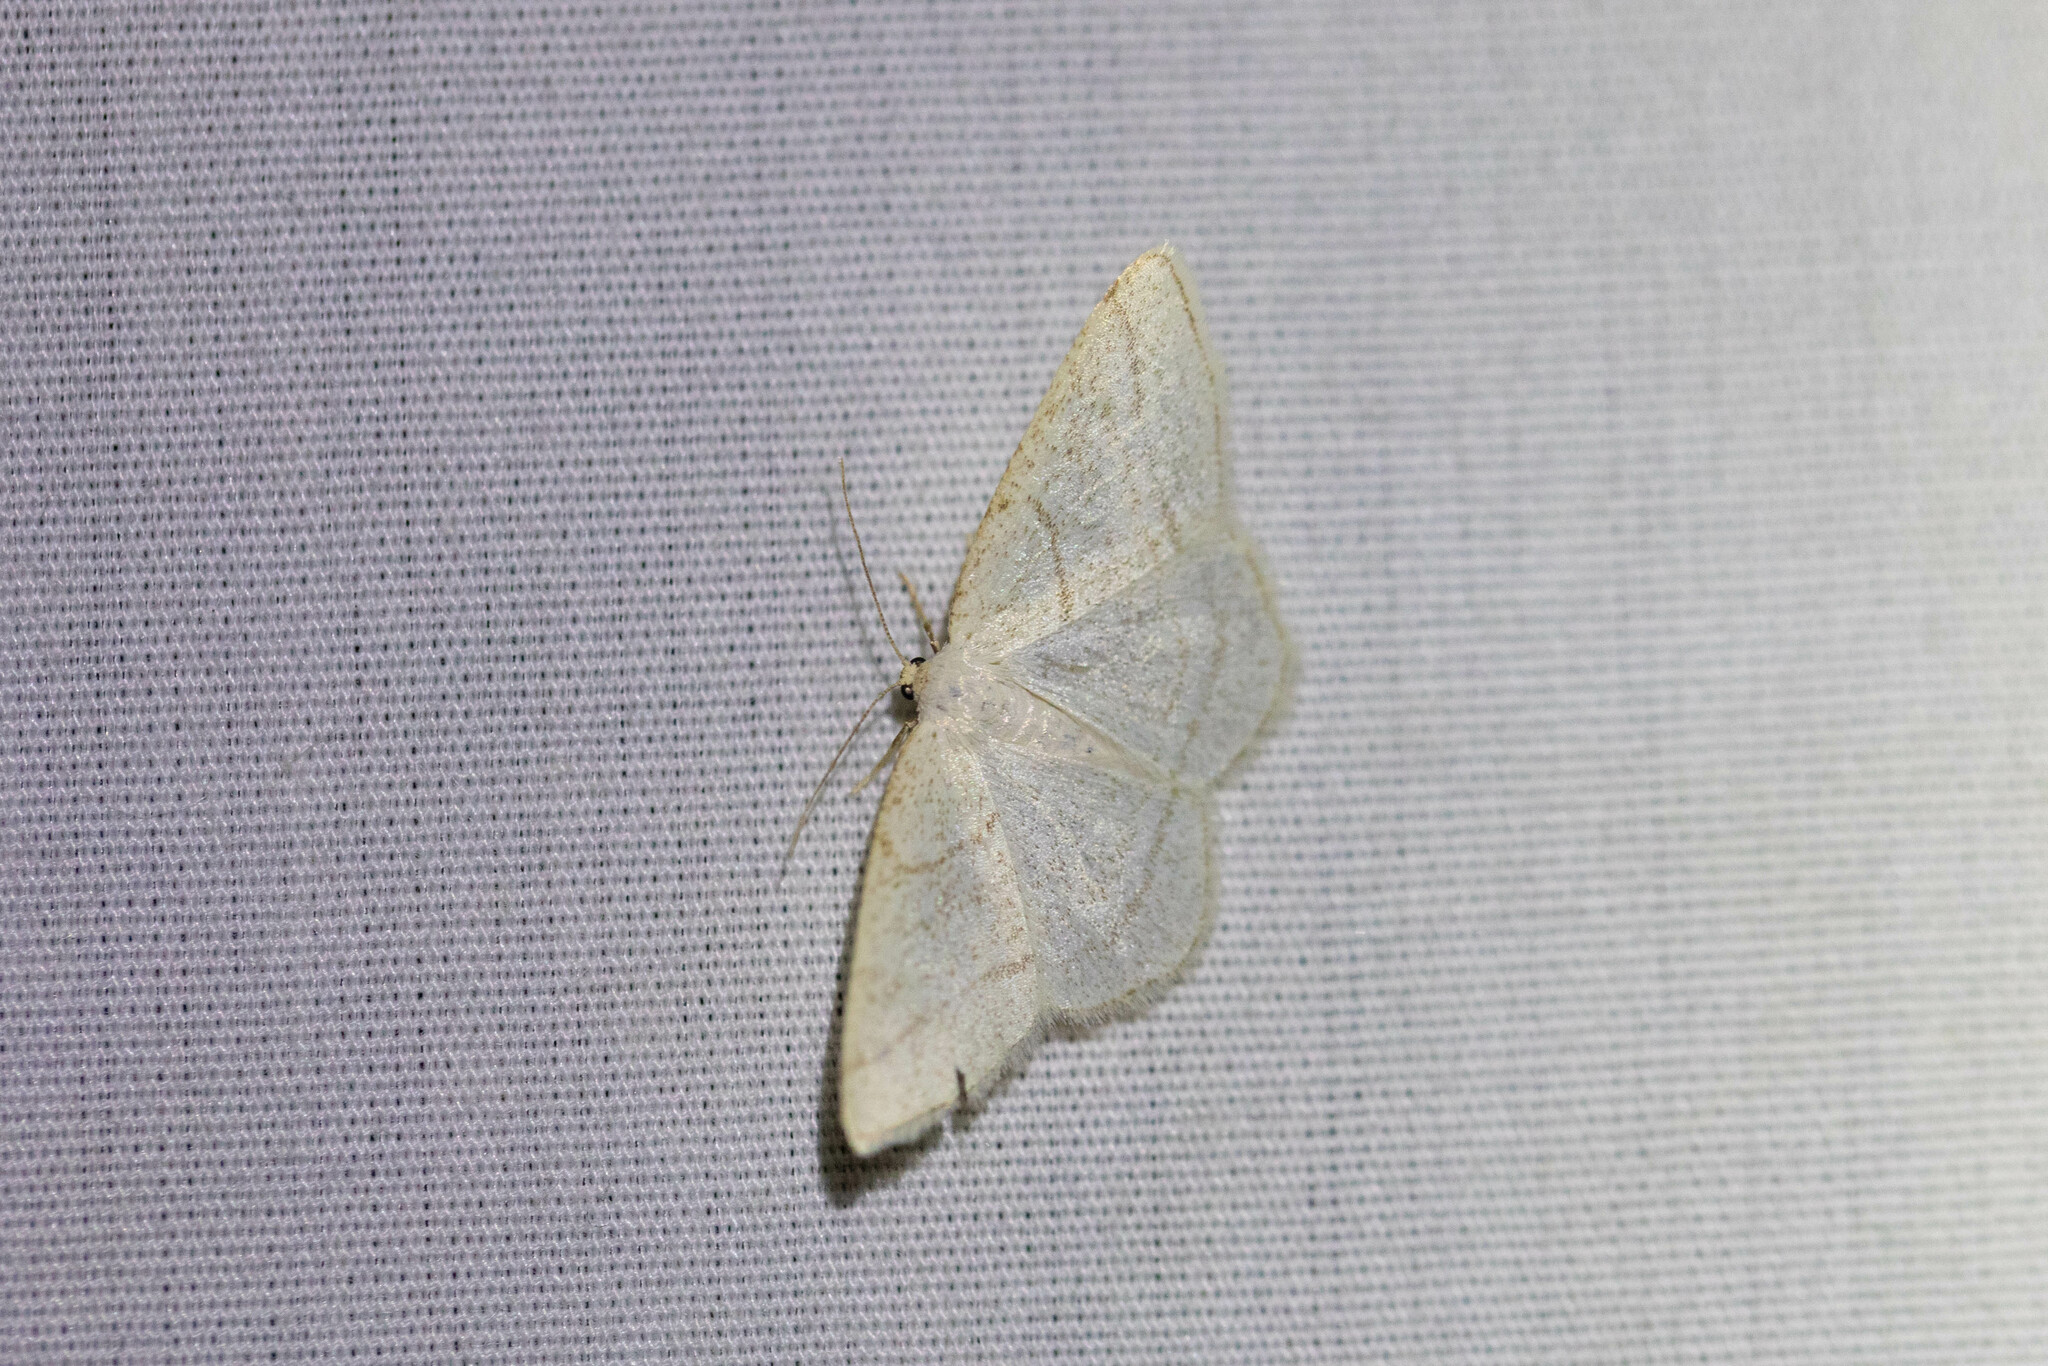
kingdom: Animalia
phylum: Arthropoda
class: Insecta
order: Lepidoptera
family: Geometridae
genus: Protitame
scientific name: Protitame subalbaria
